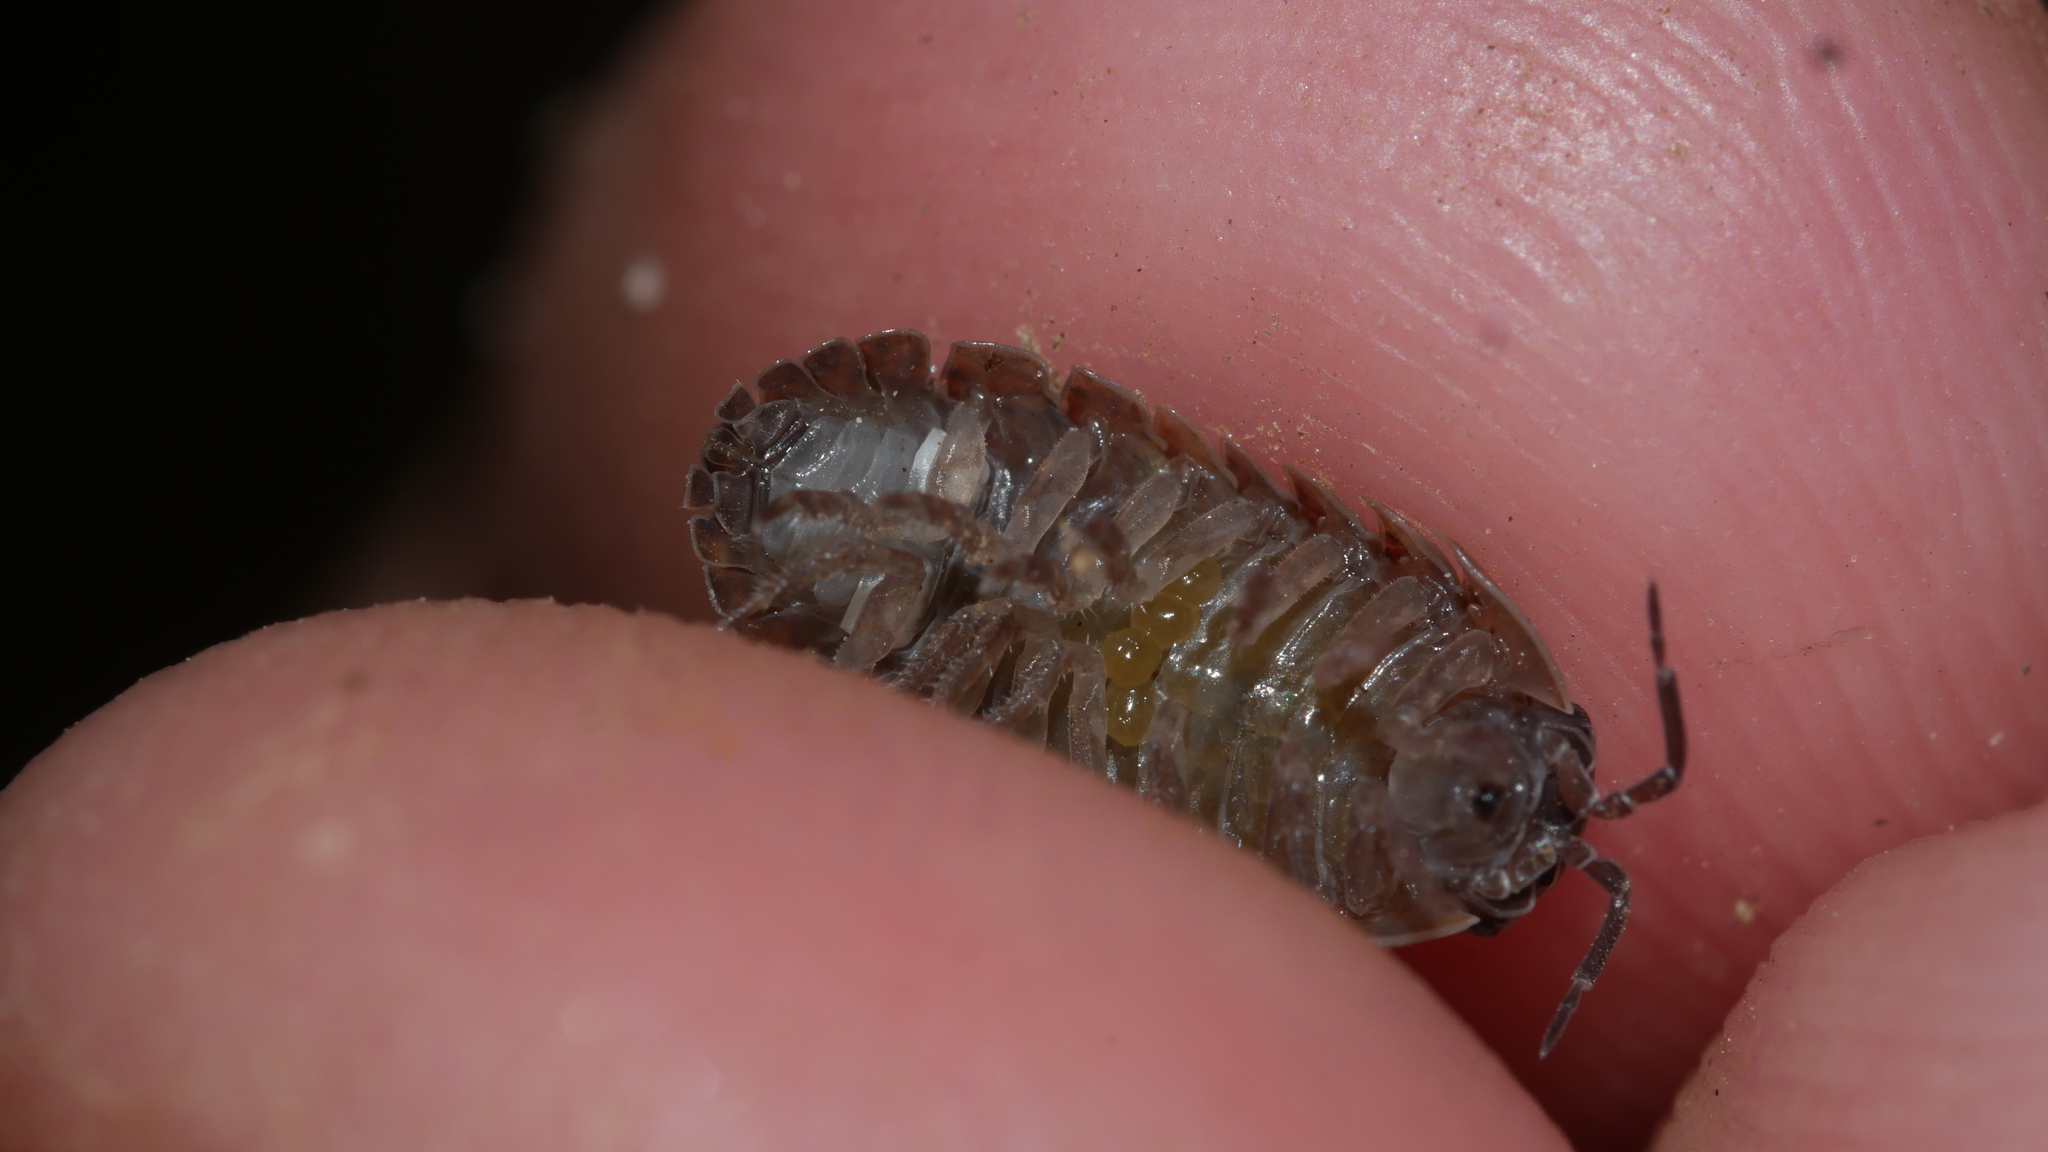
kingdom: Animalia
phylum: Arthropoda
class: Malacostraca
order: Isopoda
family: Armadillidiidae
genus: Armadillidium
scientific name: Armadillidium vulgare
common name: Common pill woodlouse
